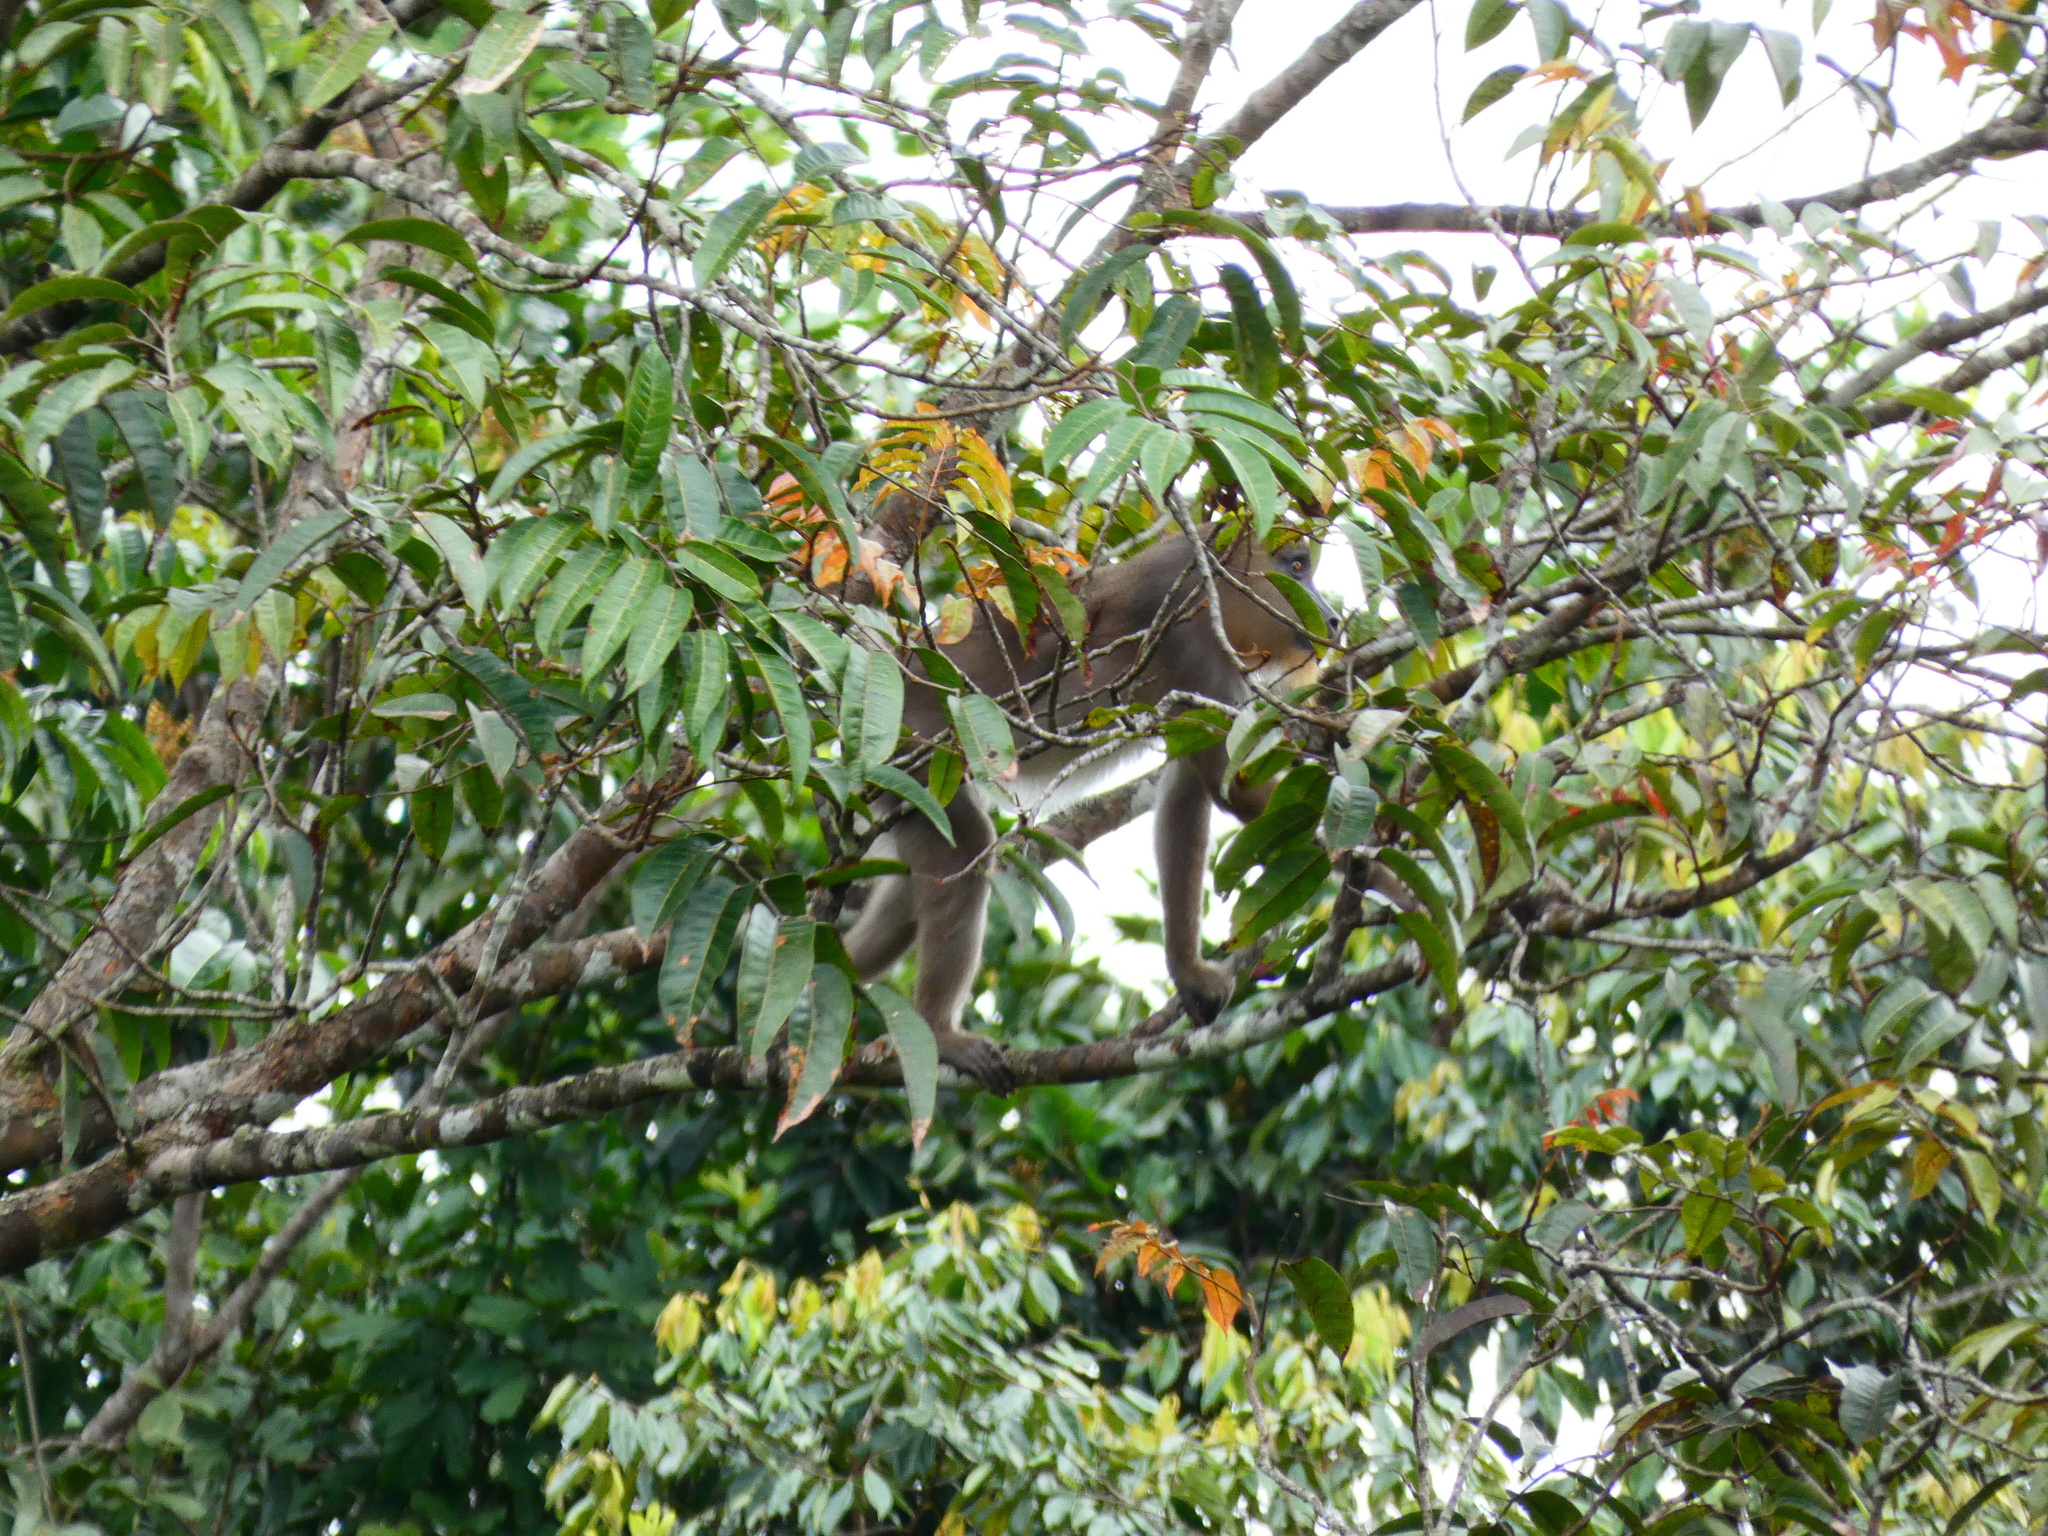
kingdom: Animalia
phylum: Chordata
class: Mammalia
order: Primates
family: Cercopithecidae
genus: Mandrillus
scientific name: Mandrillus sphinx
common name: Mandrill
